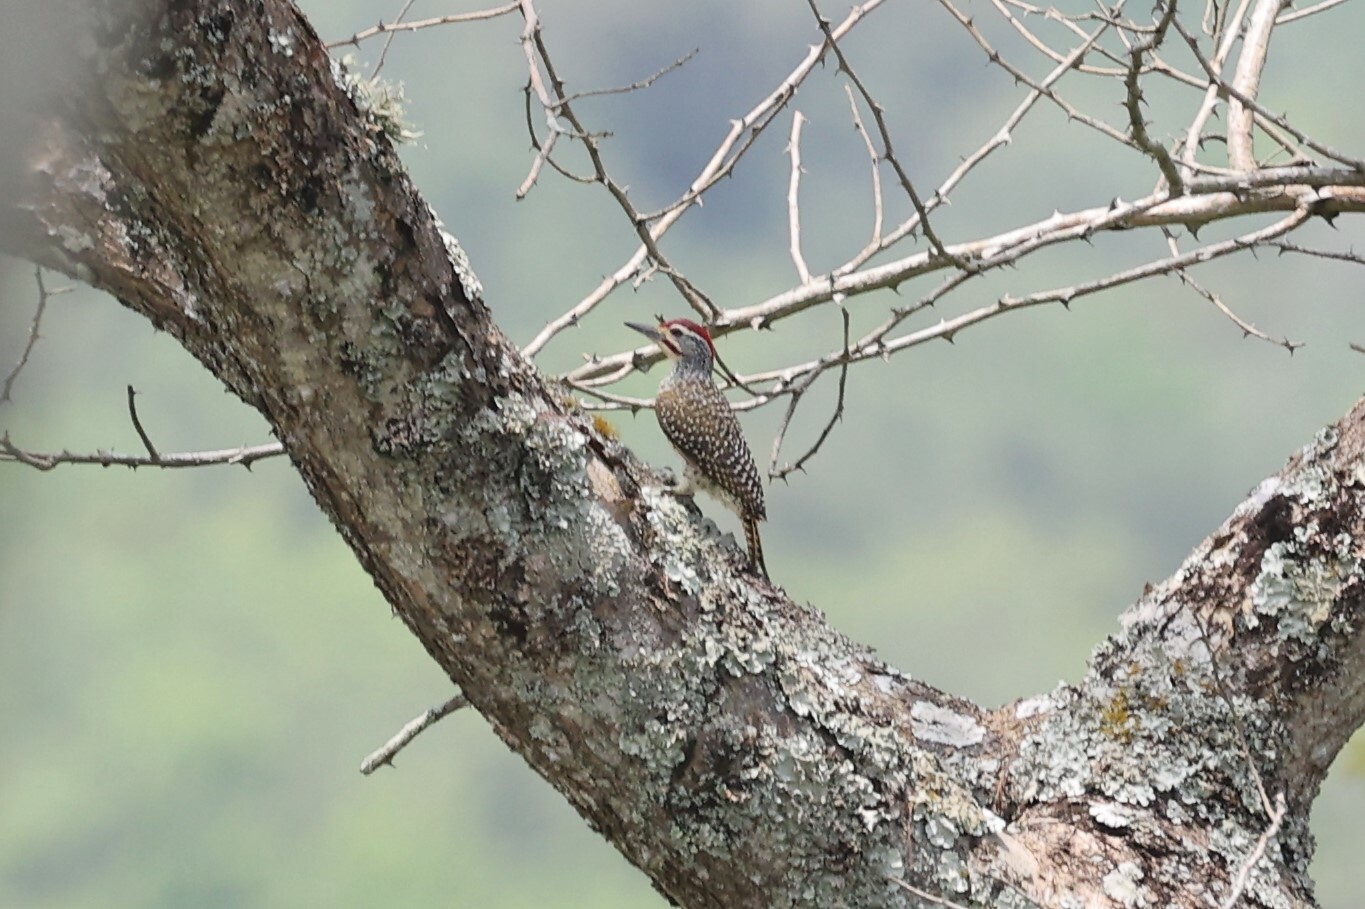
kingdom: Animalia
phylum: Chordata
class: Aves
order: Piciformes
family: Picidae
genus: Campethera
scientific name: Campethera nubica
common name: Nubian woodpecker
